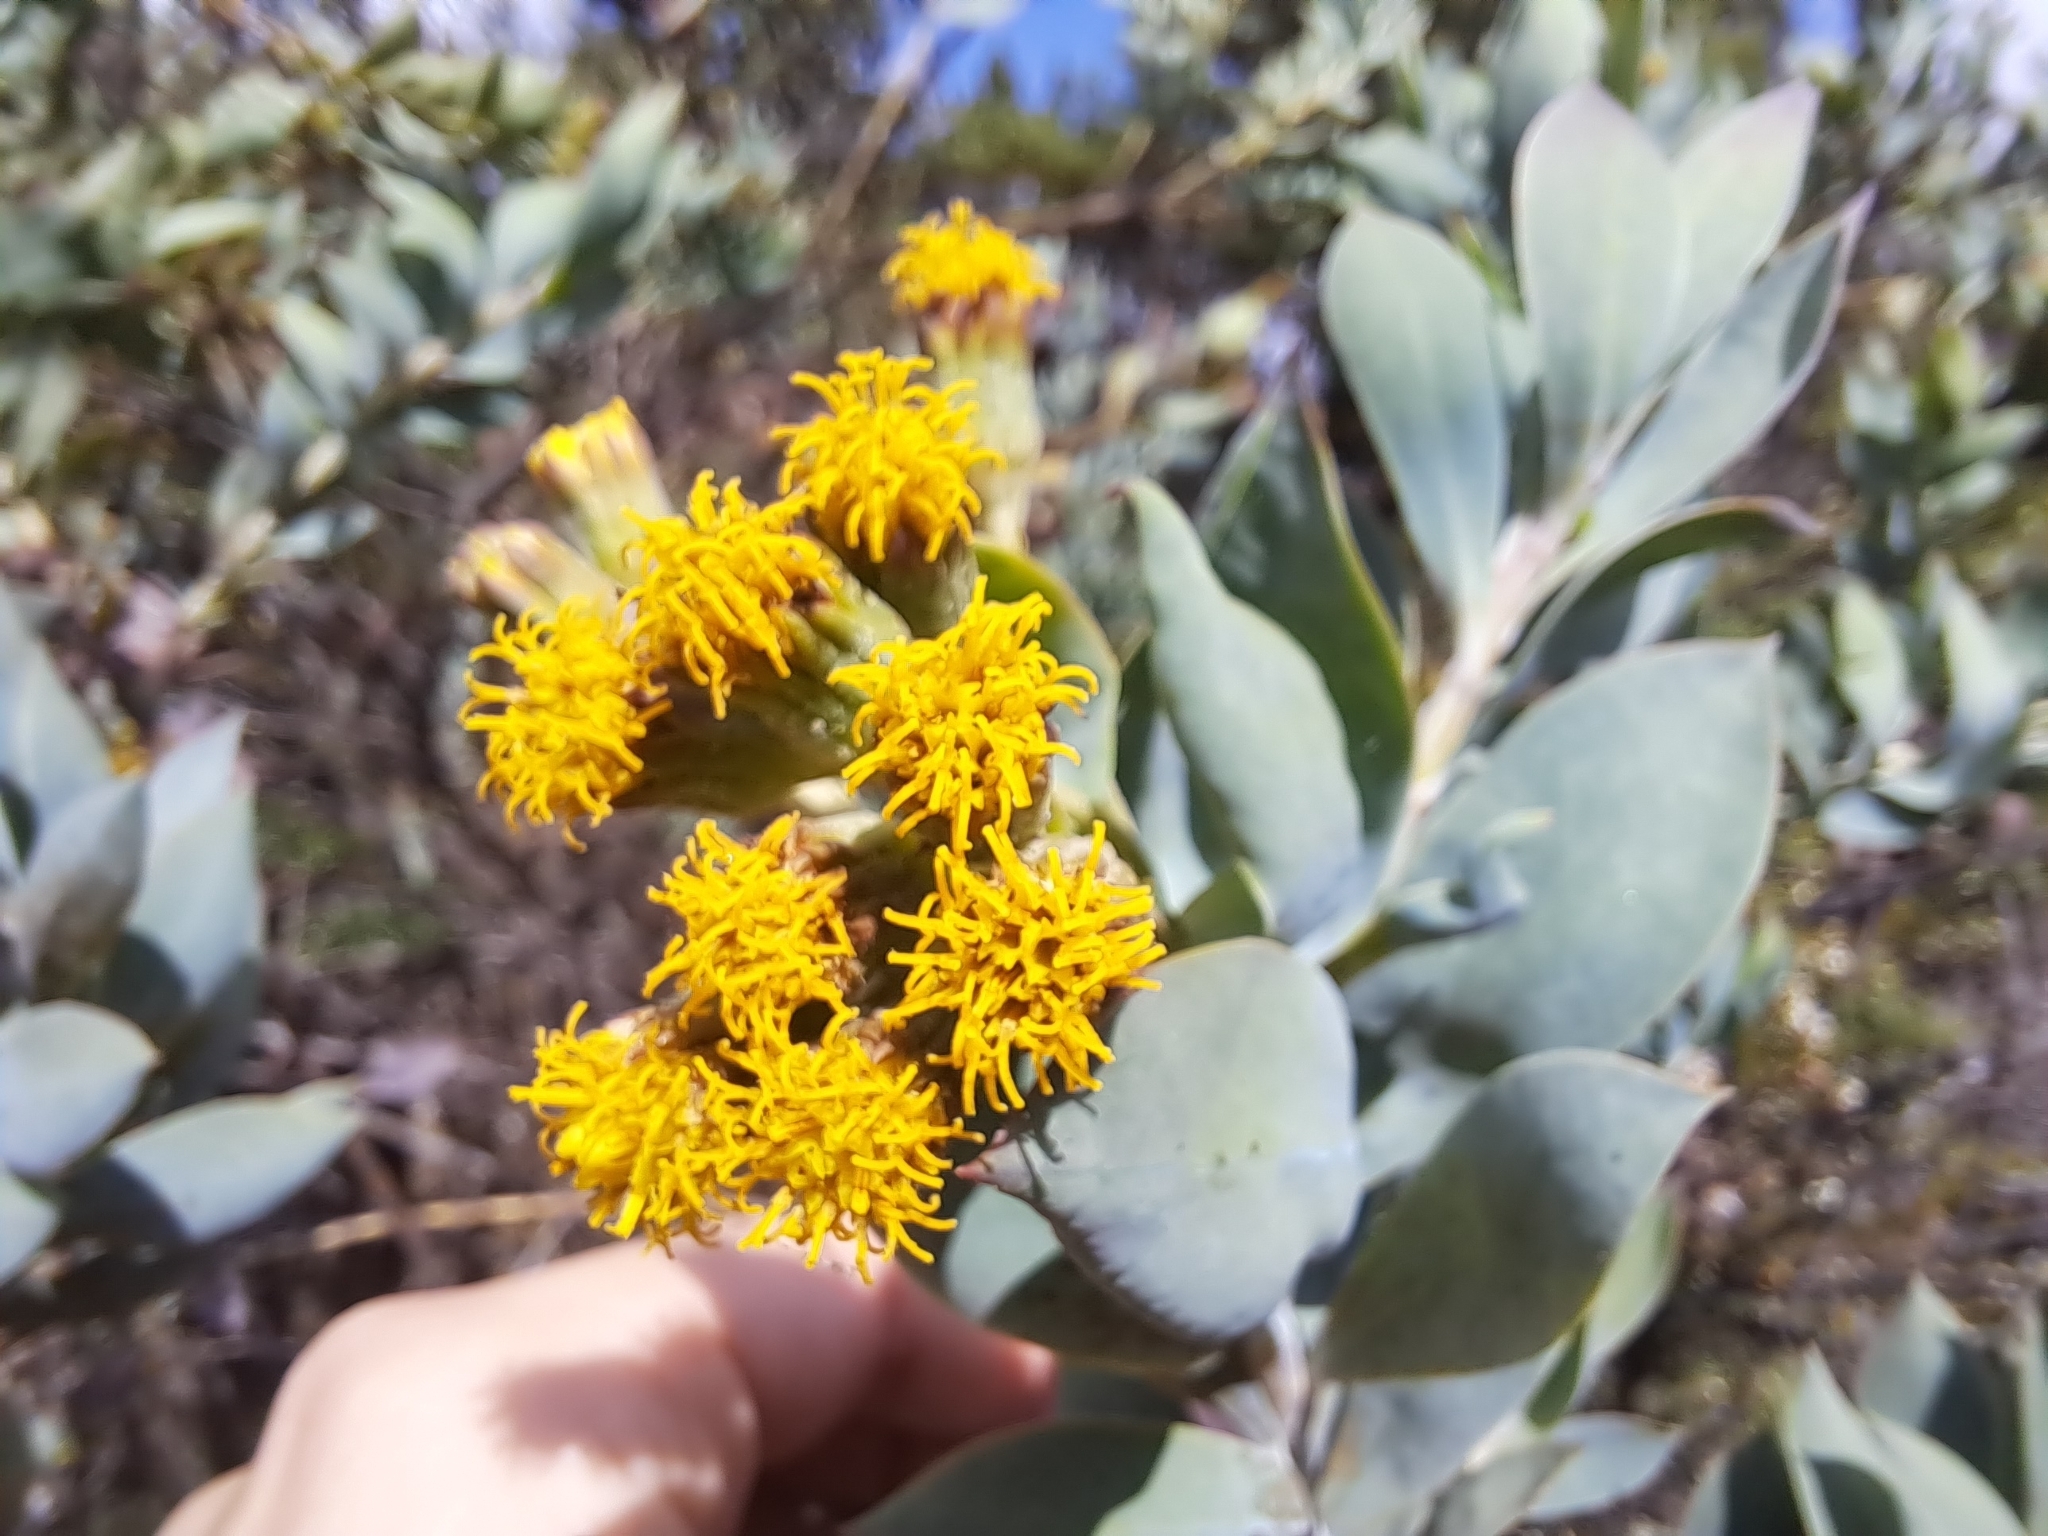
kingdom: Plantae
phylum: Tracheophyta
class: Magnoliopsida
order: Asterales
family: Asteraceae
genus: Monticalia
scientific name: Monticalia vaccinioides
